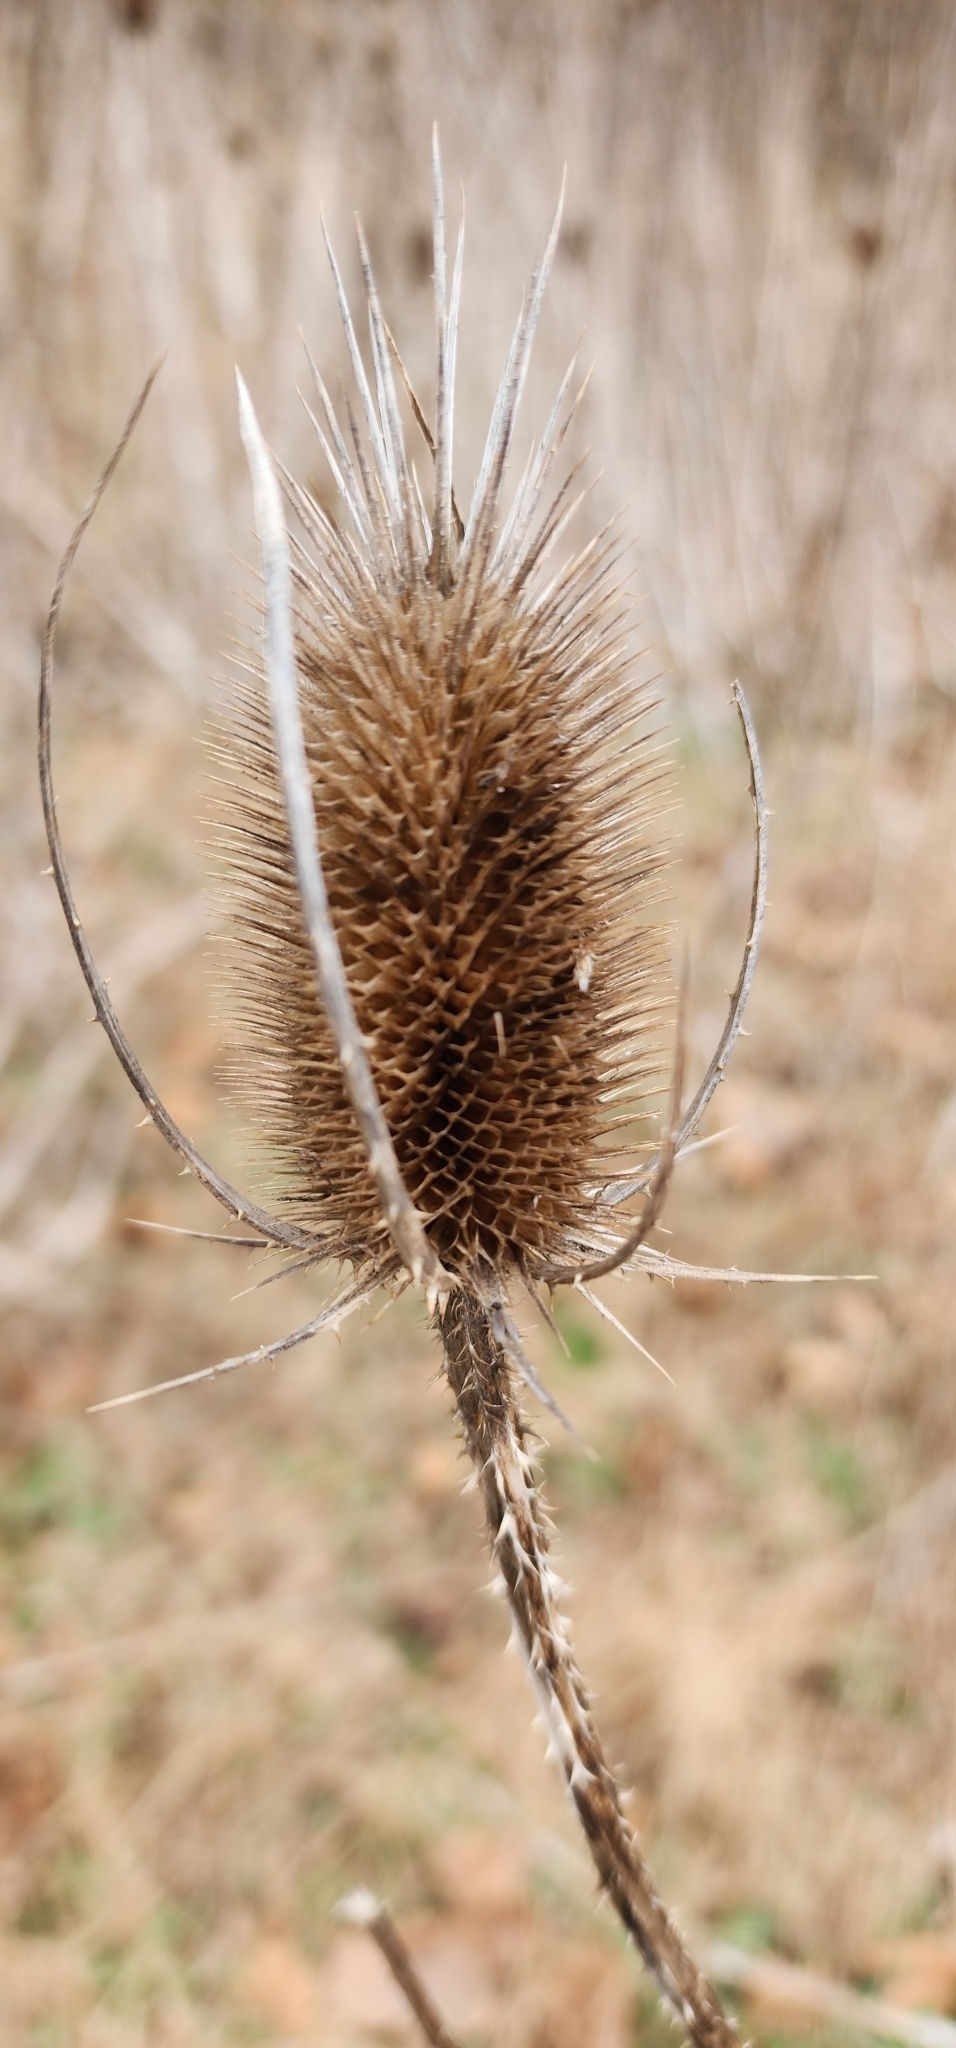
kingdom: Plantae
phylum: Tracheophyta
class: Magnoliopsida
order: Dipsacales
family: Caprifoliaceae
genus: Dipsacus
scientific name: Dipsacus fullonum
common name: Teasel
